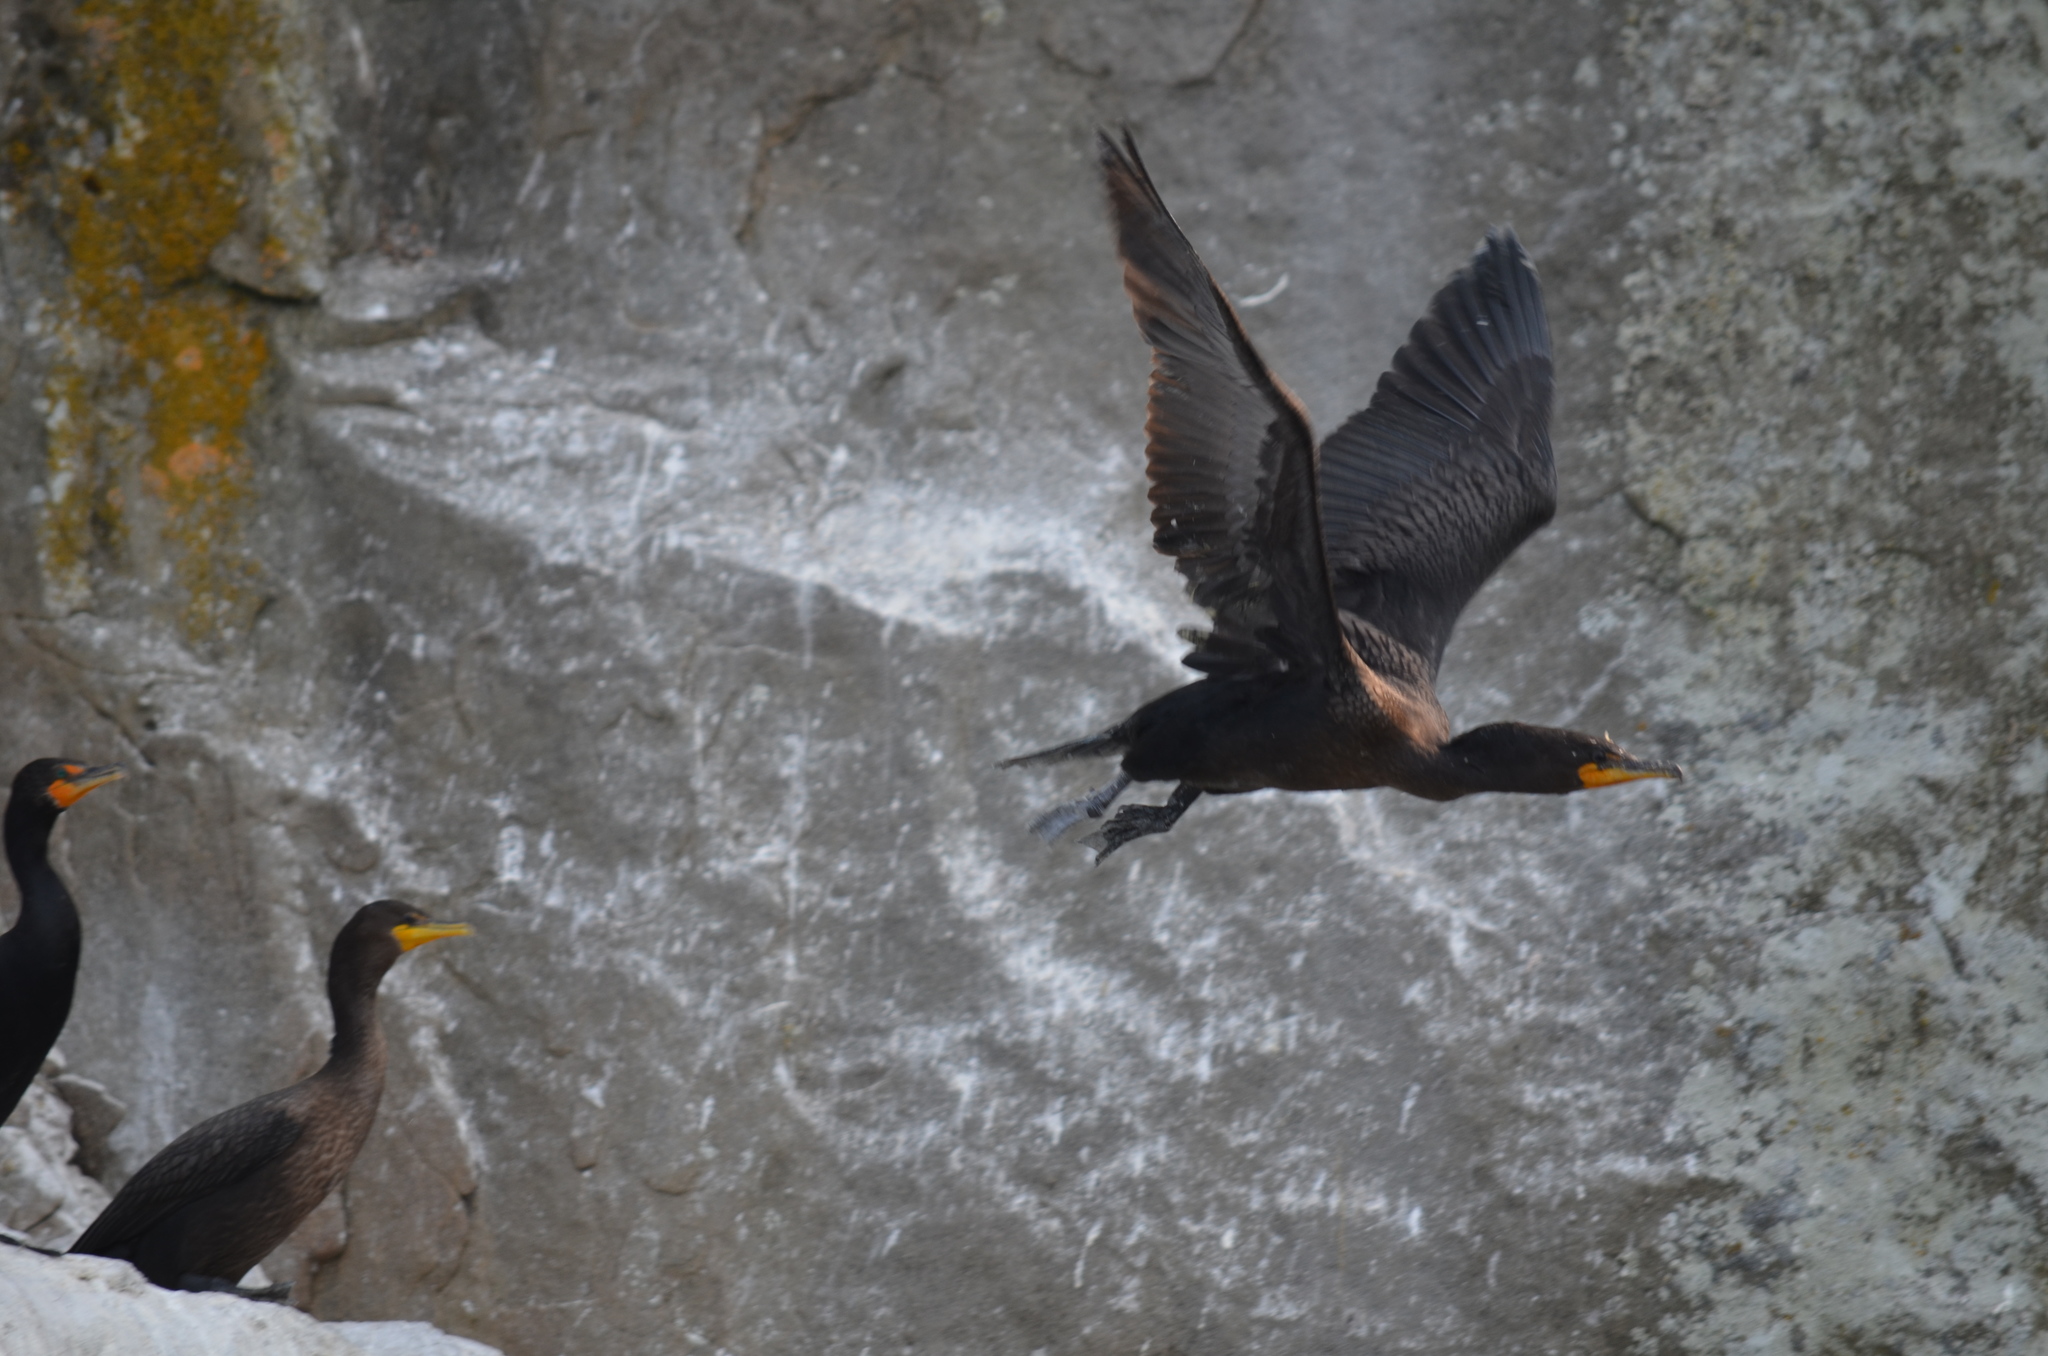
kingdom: Animalia
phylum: Chordata
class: Aves
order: Suliformes
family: Phalacrocoracidae
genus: Phalacrocorax
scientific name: Phalacrocorax auritus
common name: Double-crested cormorant
